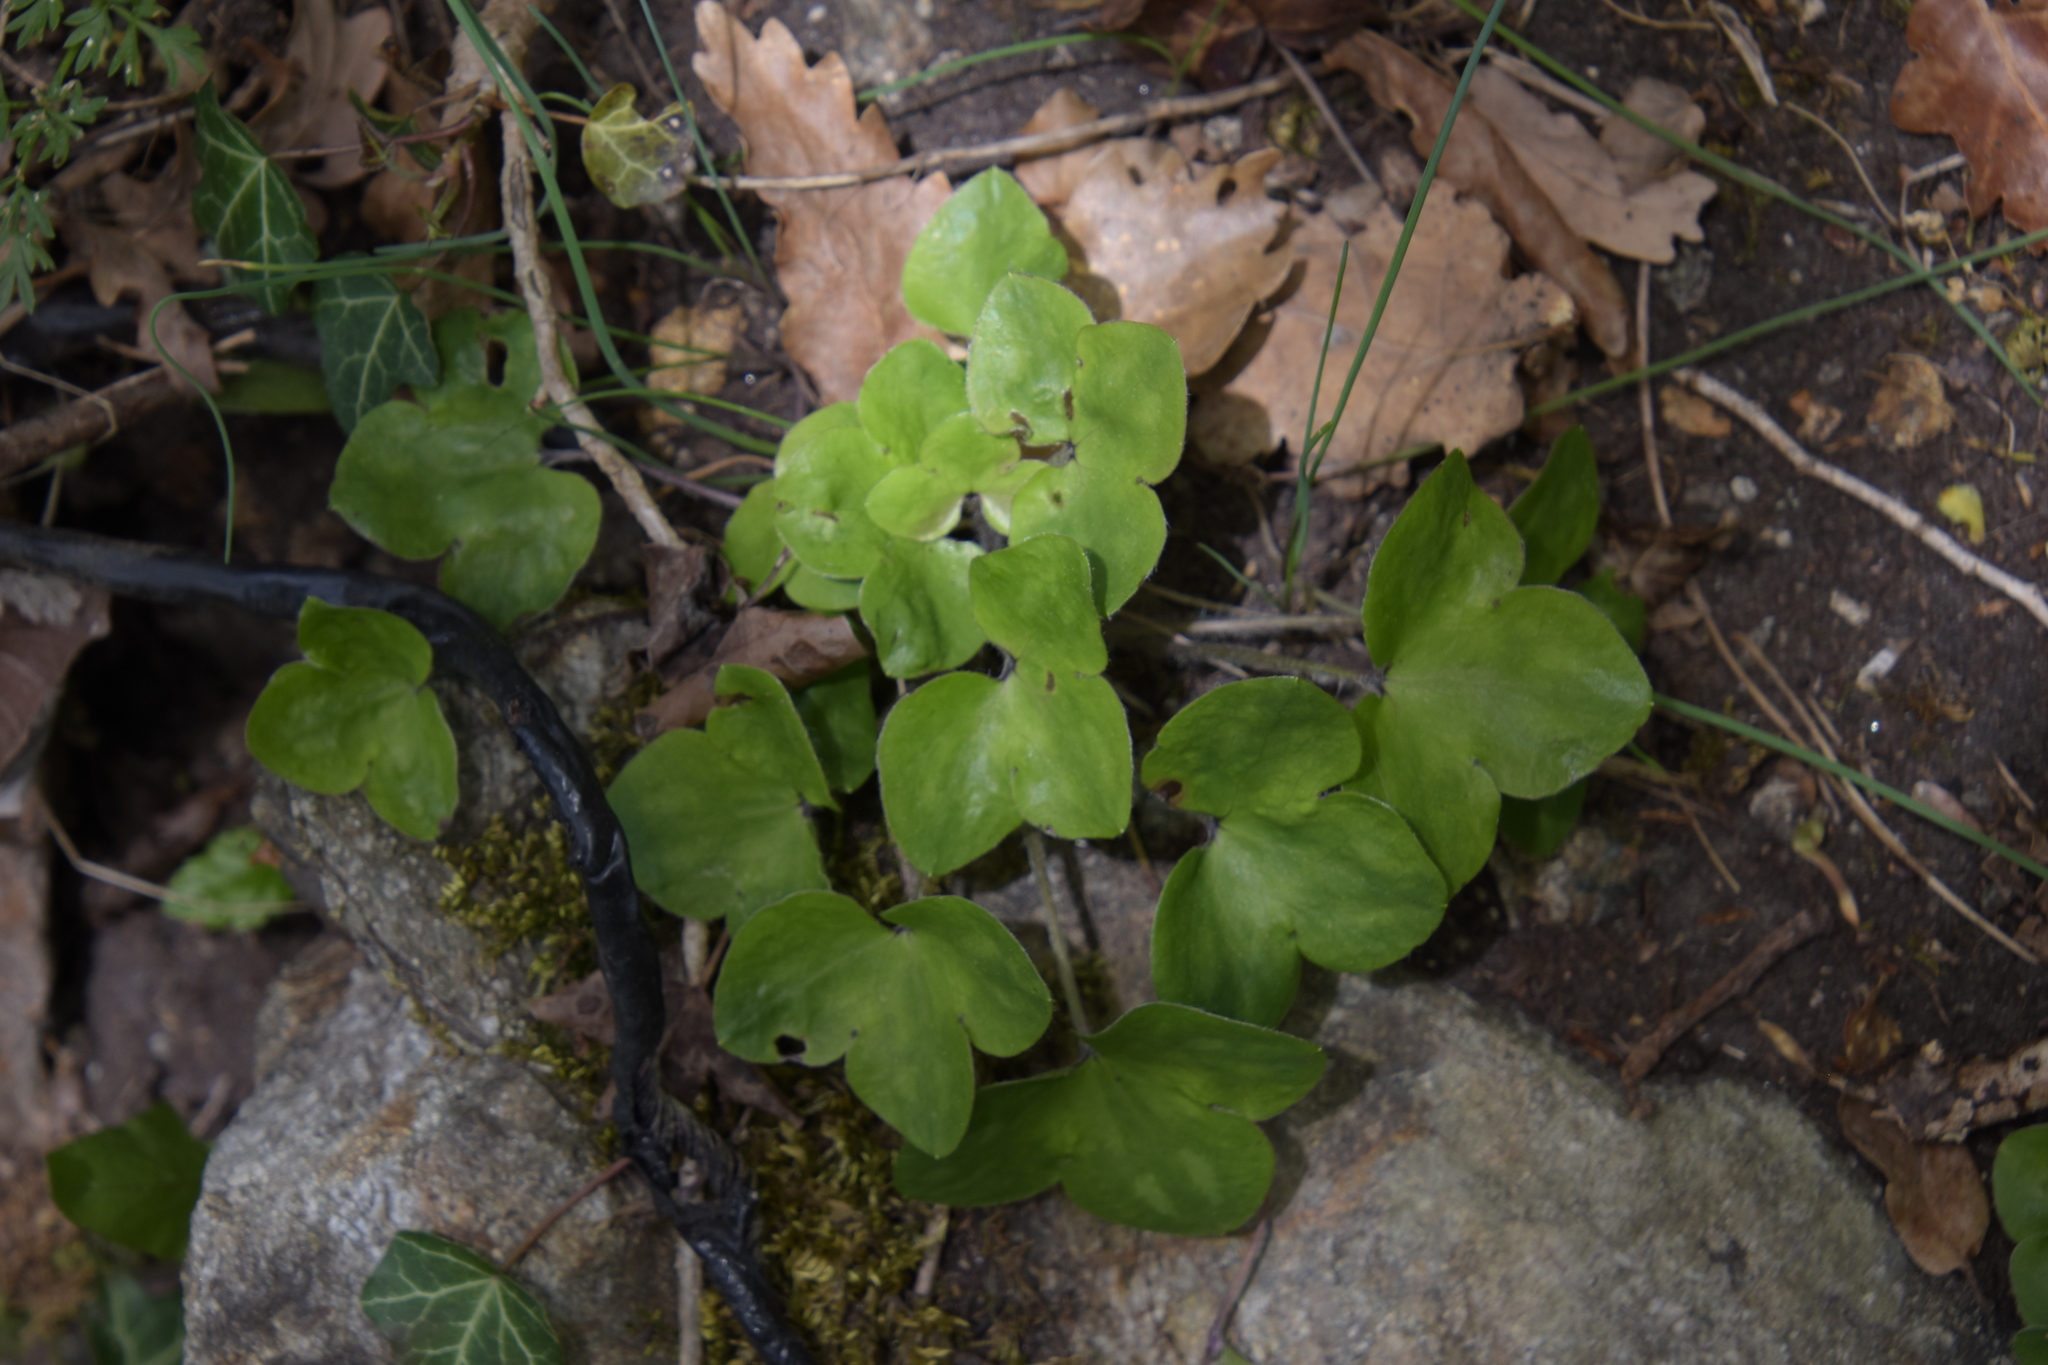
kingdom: Plantae
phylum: Tracheophyta
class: Magnoliopsida
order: Ranunculales
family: Ranunculaceae
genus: Hepatica
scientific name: Hepatica nobilis
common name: Liverleaf
